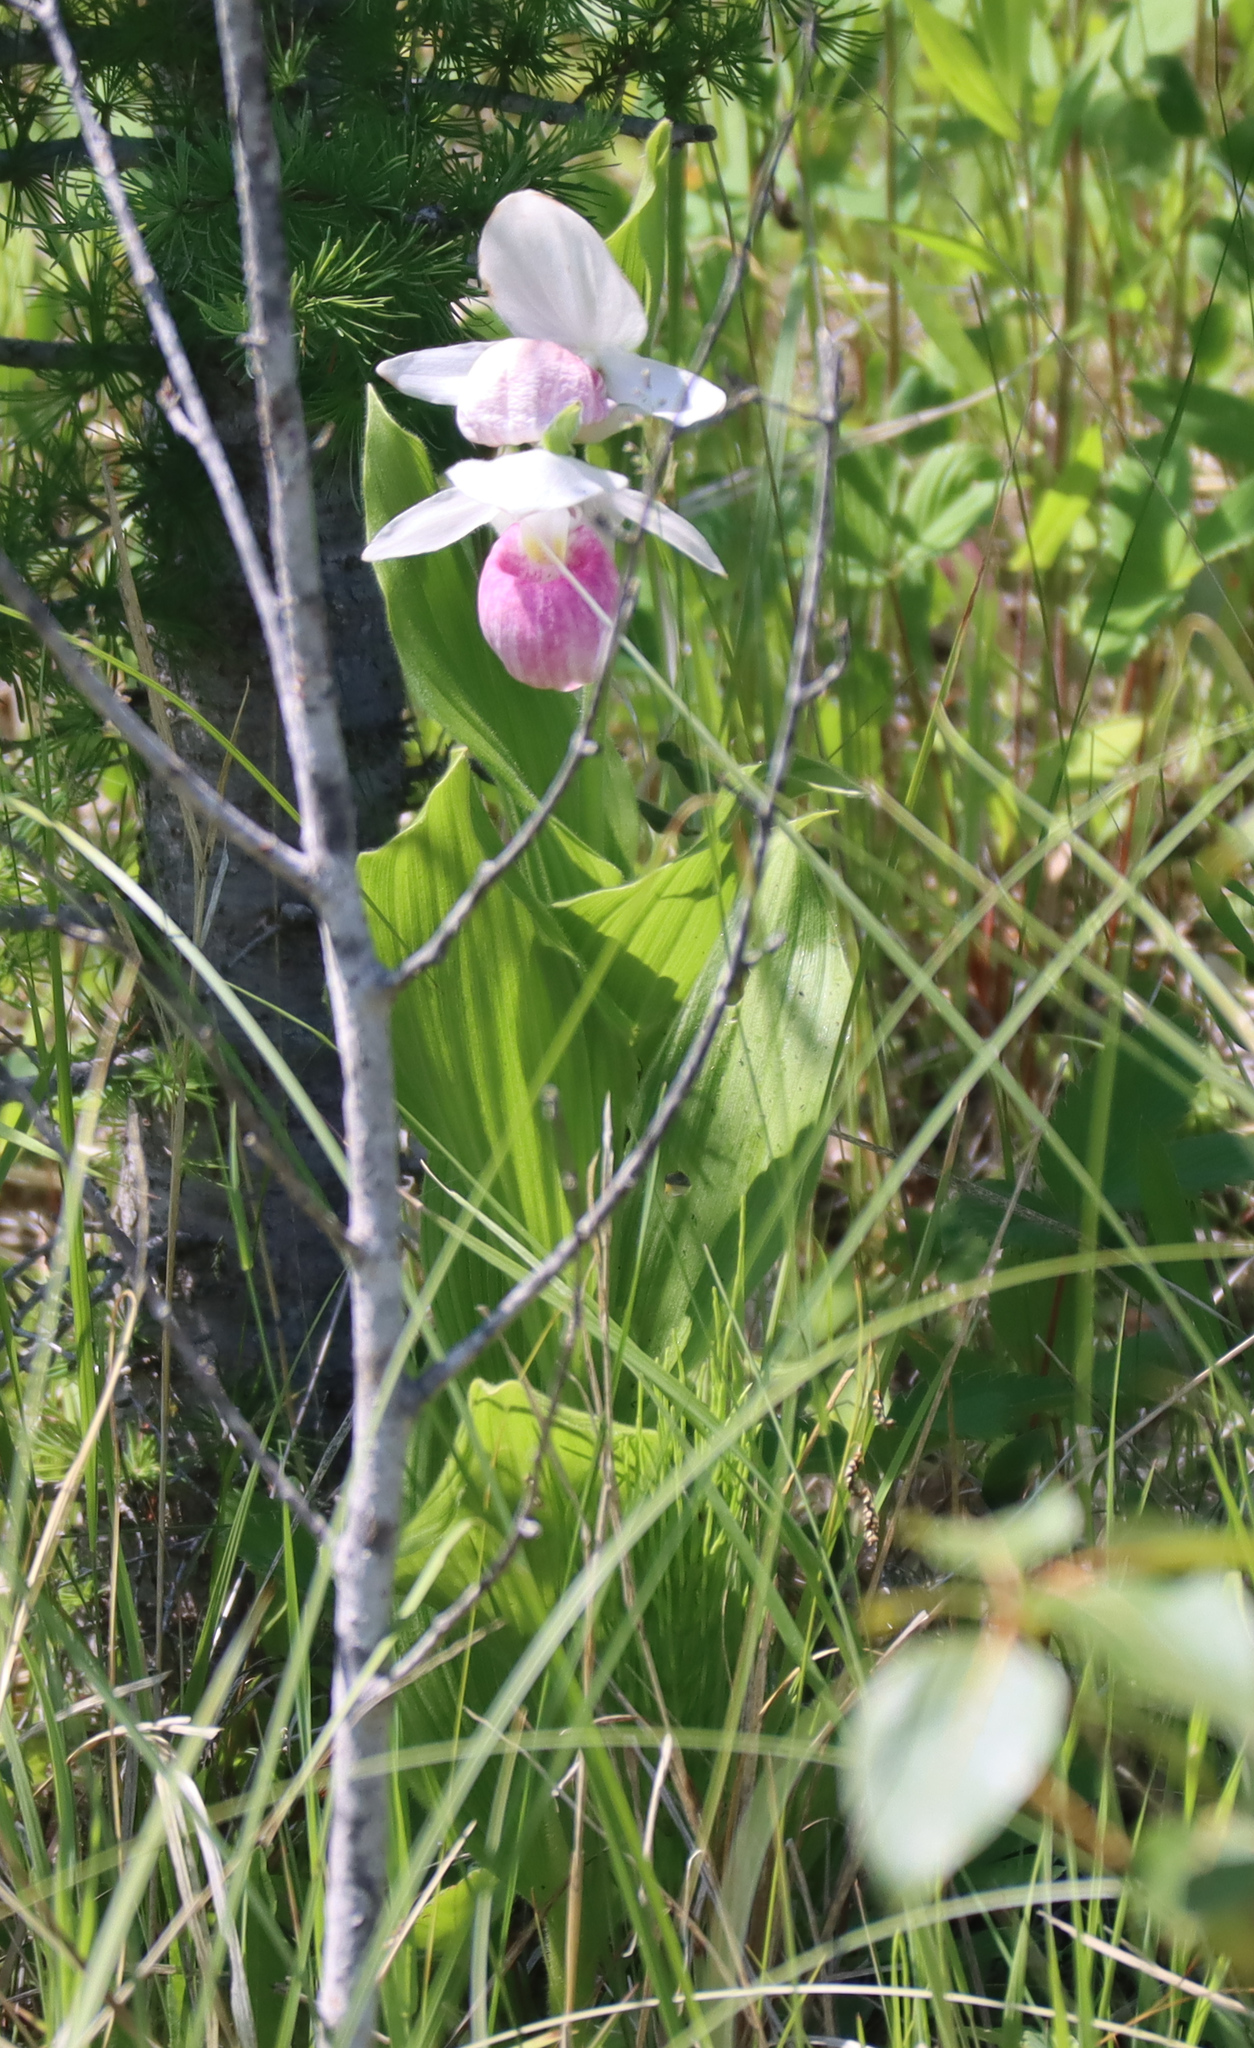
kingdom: Plantae
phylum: Tracheophyta
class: Liliopsida
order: Asparagales
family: Orchidaceae
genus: Cypripedium
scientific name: Cypripedium reginae
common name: Queen lady's-slipper
